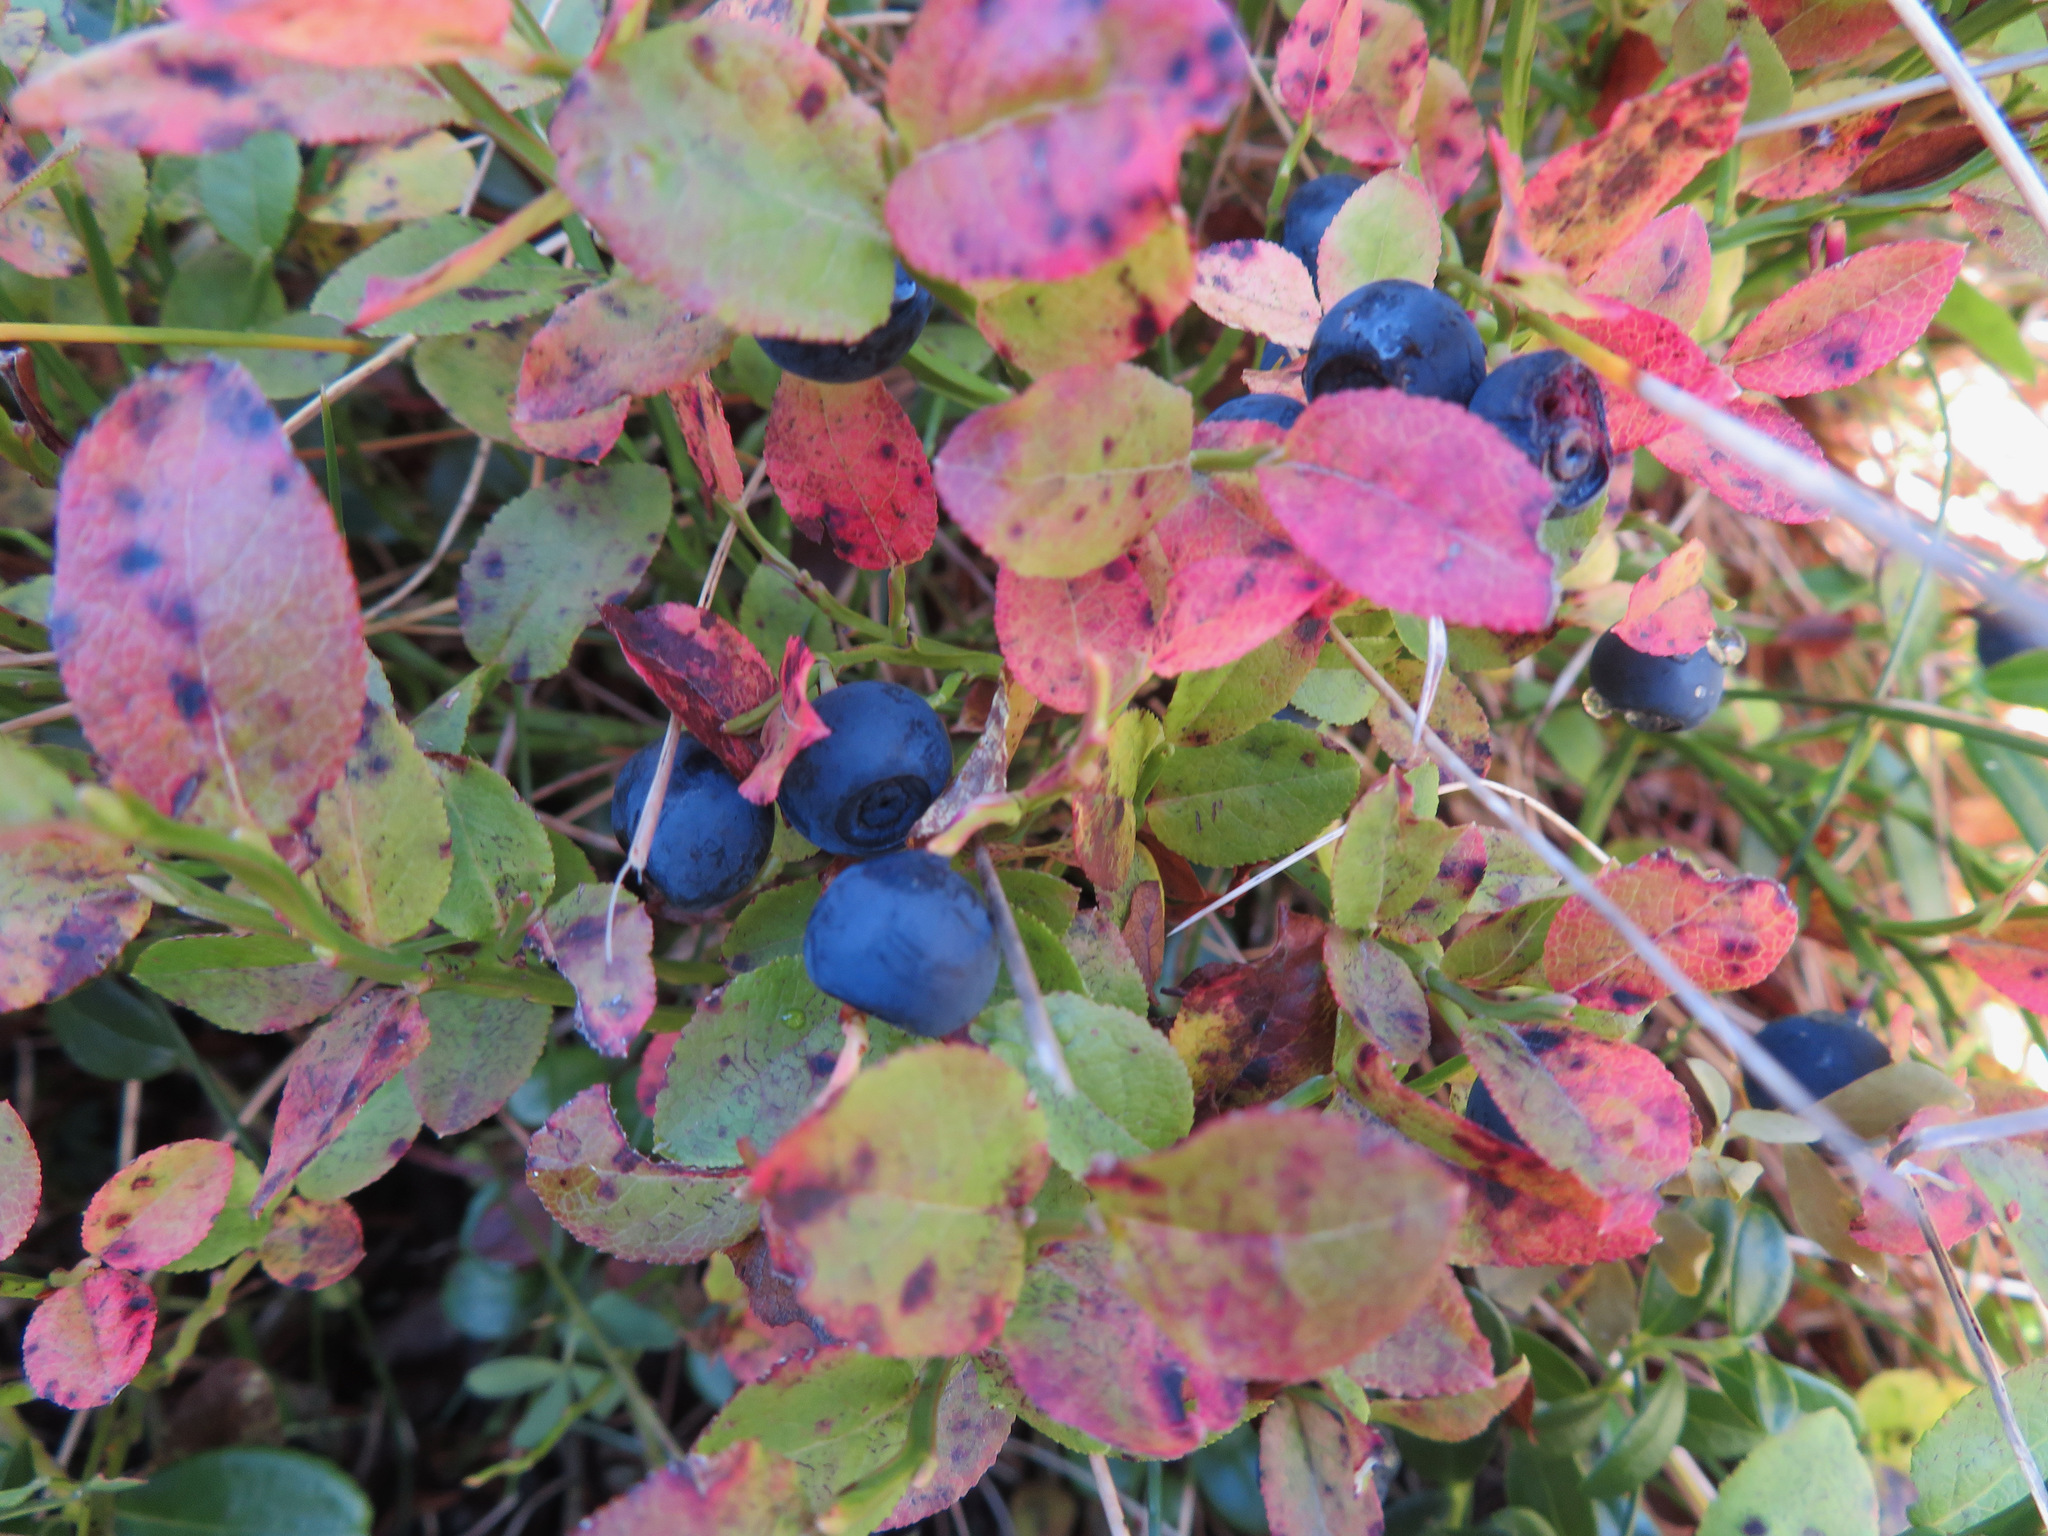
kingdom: Plantae
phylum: Tracheophyta
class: Magnoliopsida
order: Ericales
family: Ericaceae
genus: Vaccinium
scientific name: Vaccinium myrtillus
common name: Bilberry
